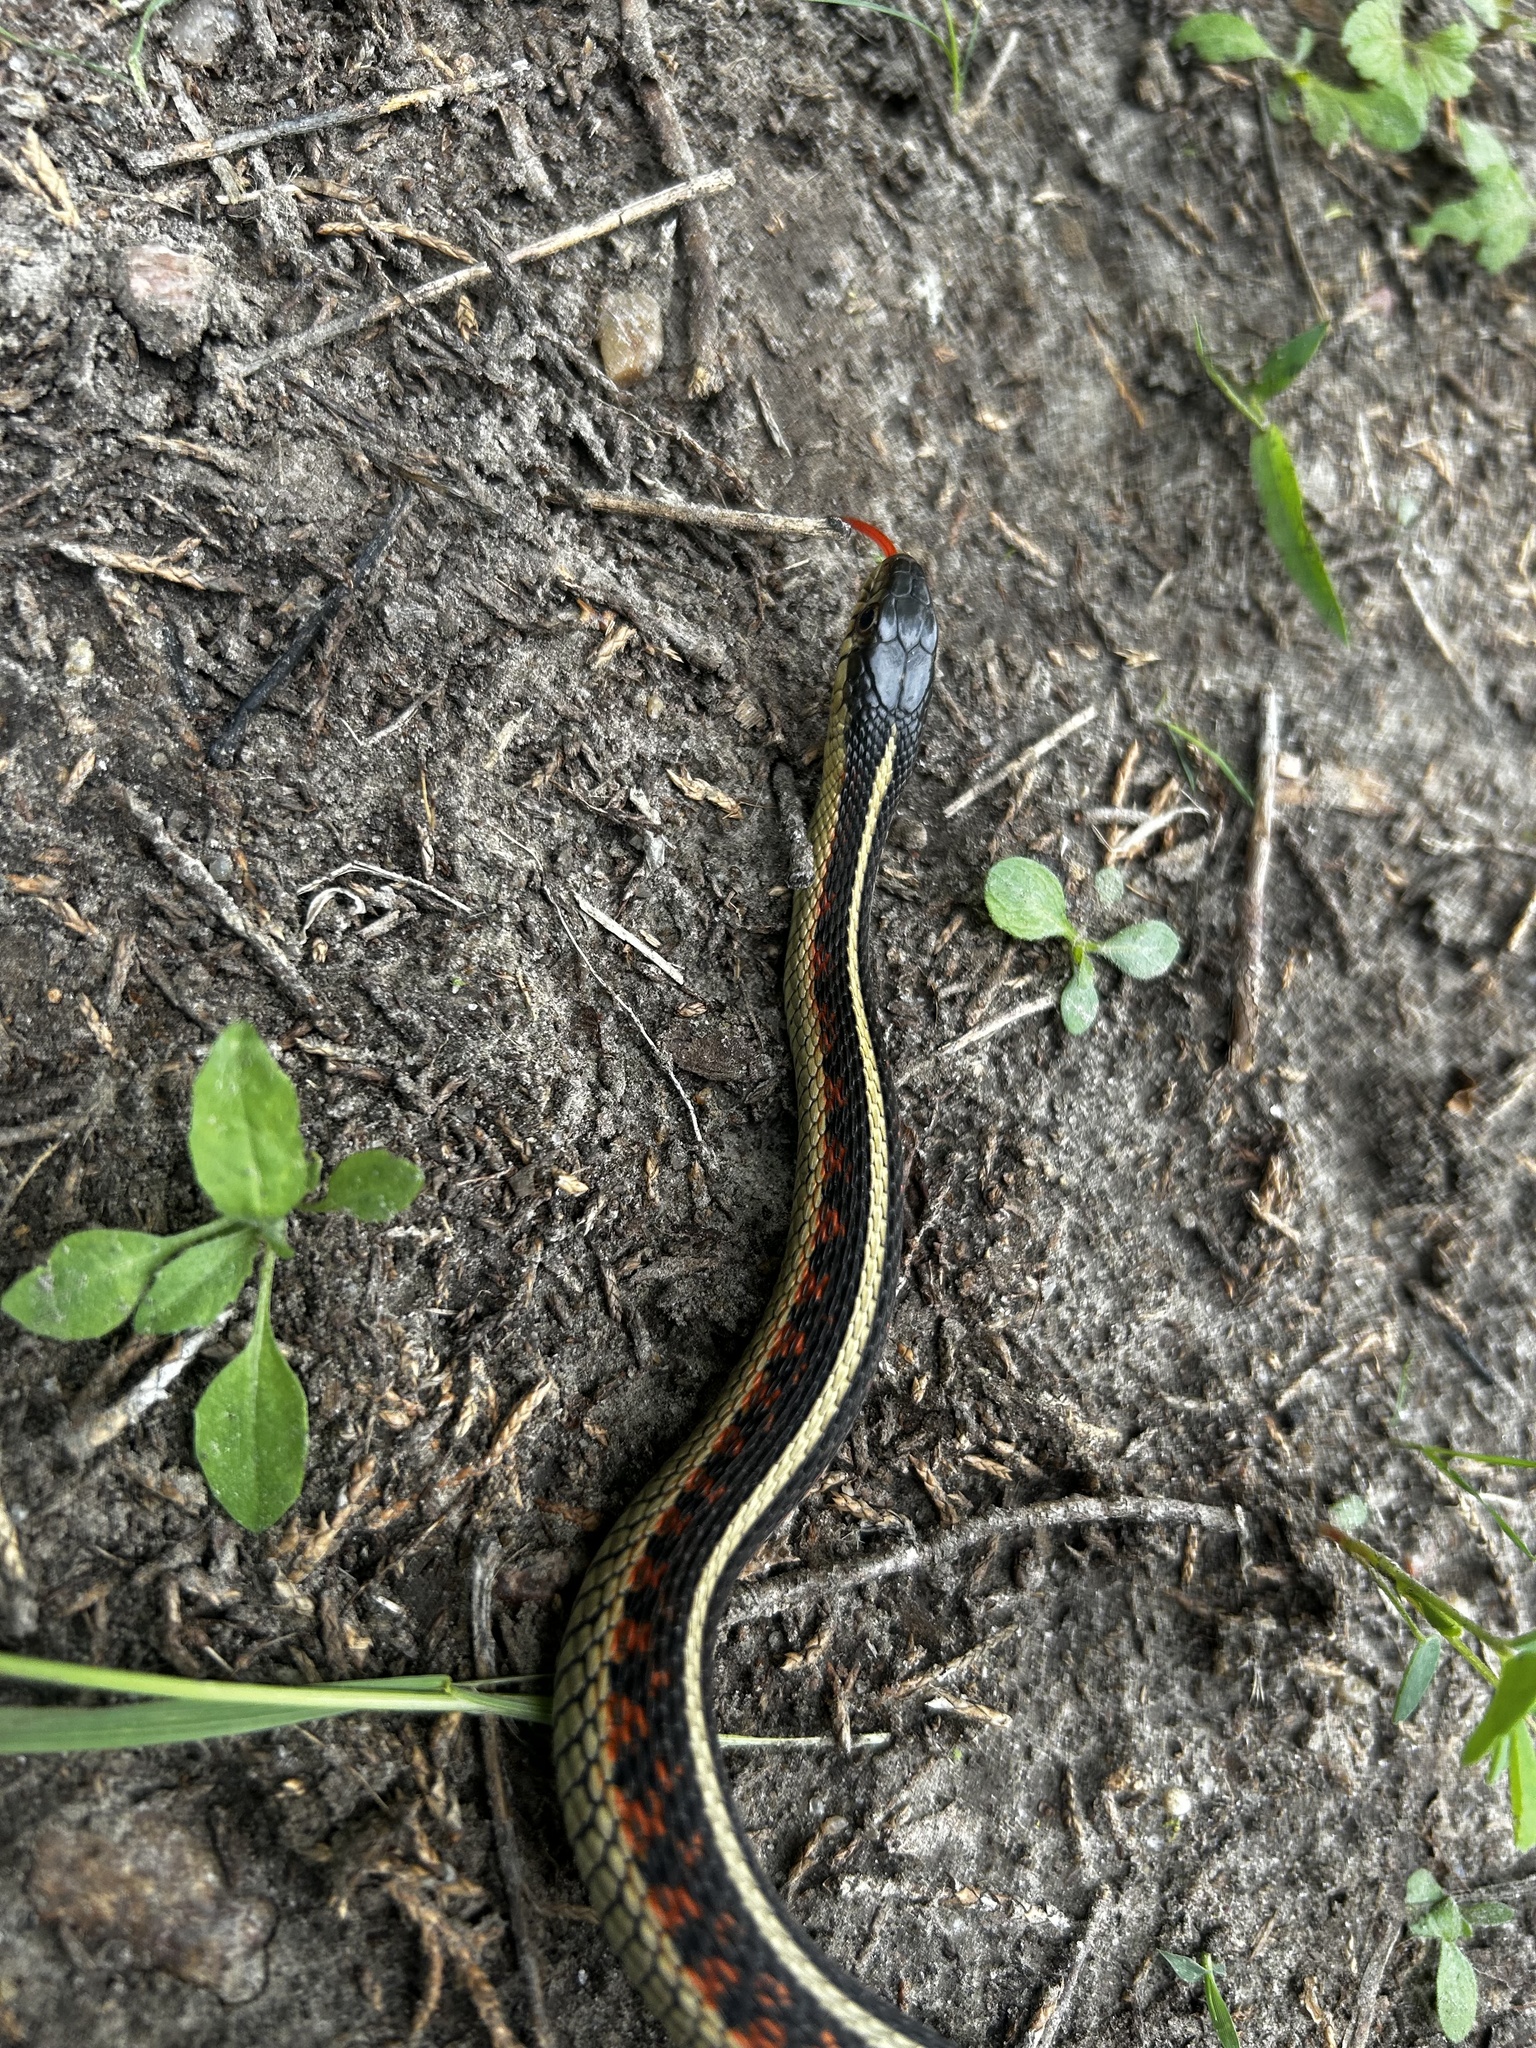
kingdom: Animalia
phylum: Chordata
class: Squamata
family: Colubridae
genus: Thamnophis
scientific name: Thamnophis sirtalis
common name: Common garter snake
